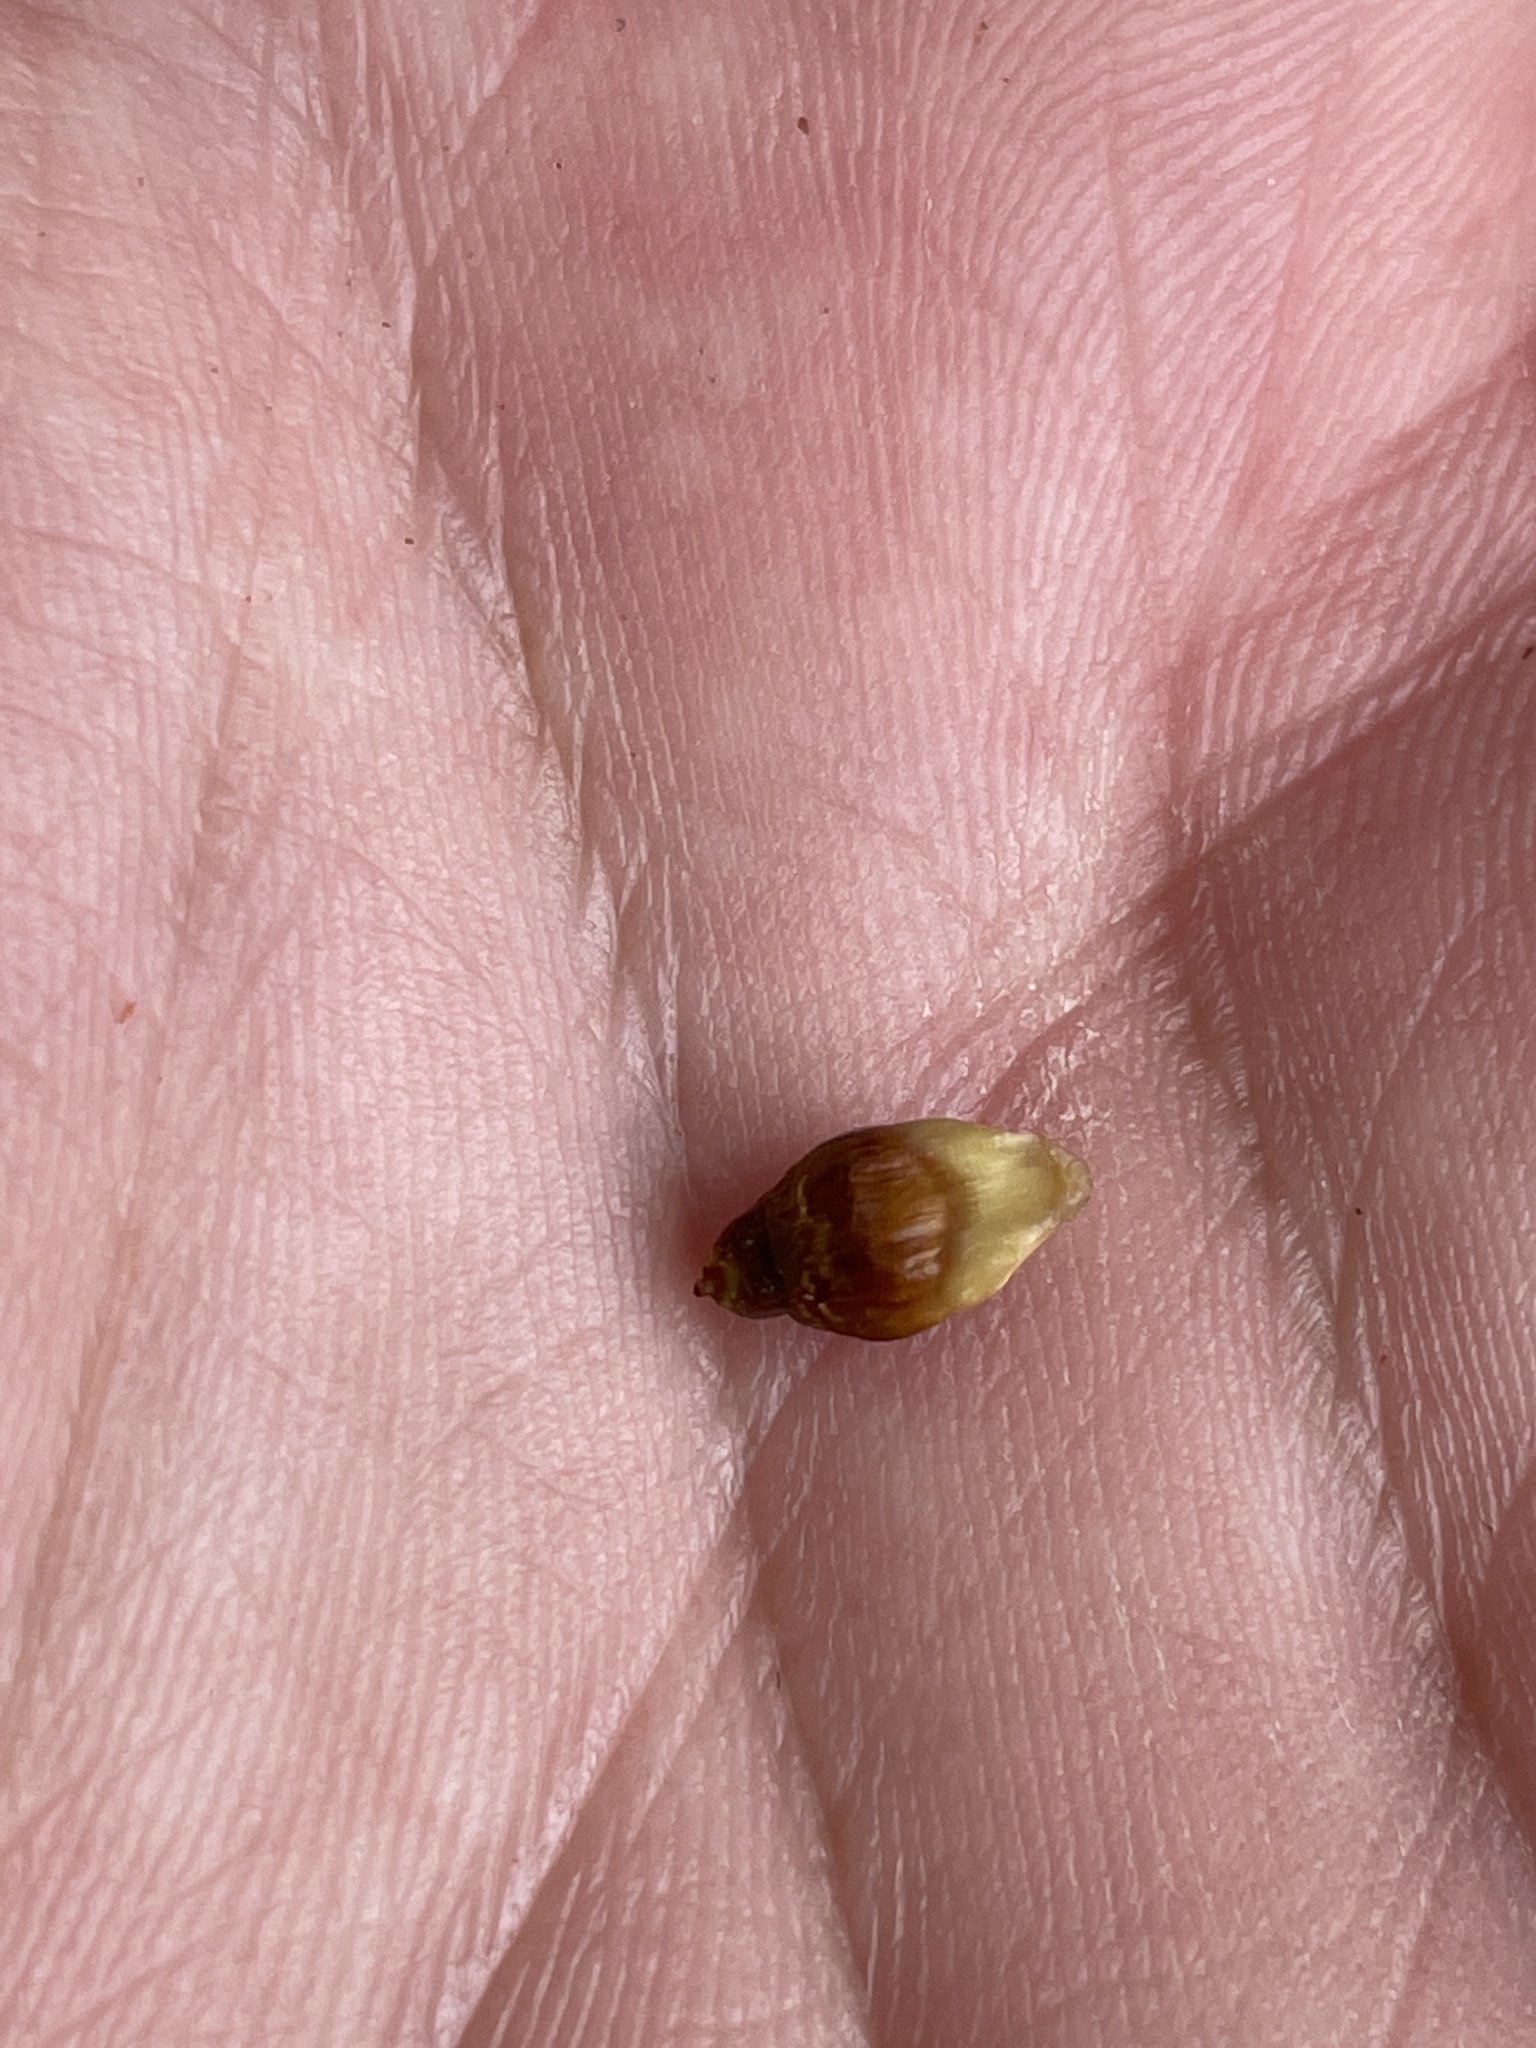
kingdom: Animalia
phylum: Arthropoda
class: Insecta
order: Hymenoptera
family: Cynipidae
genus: Callirhytis
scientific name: Callirhytis
